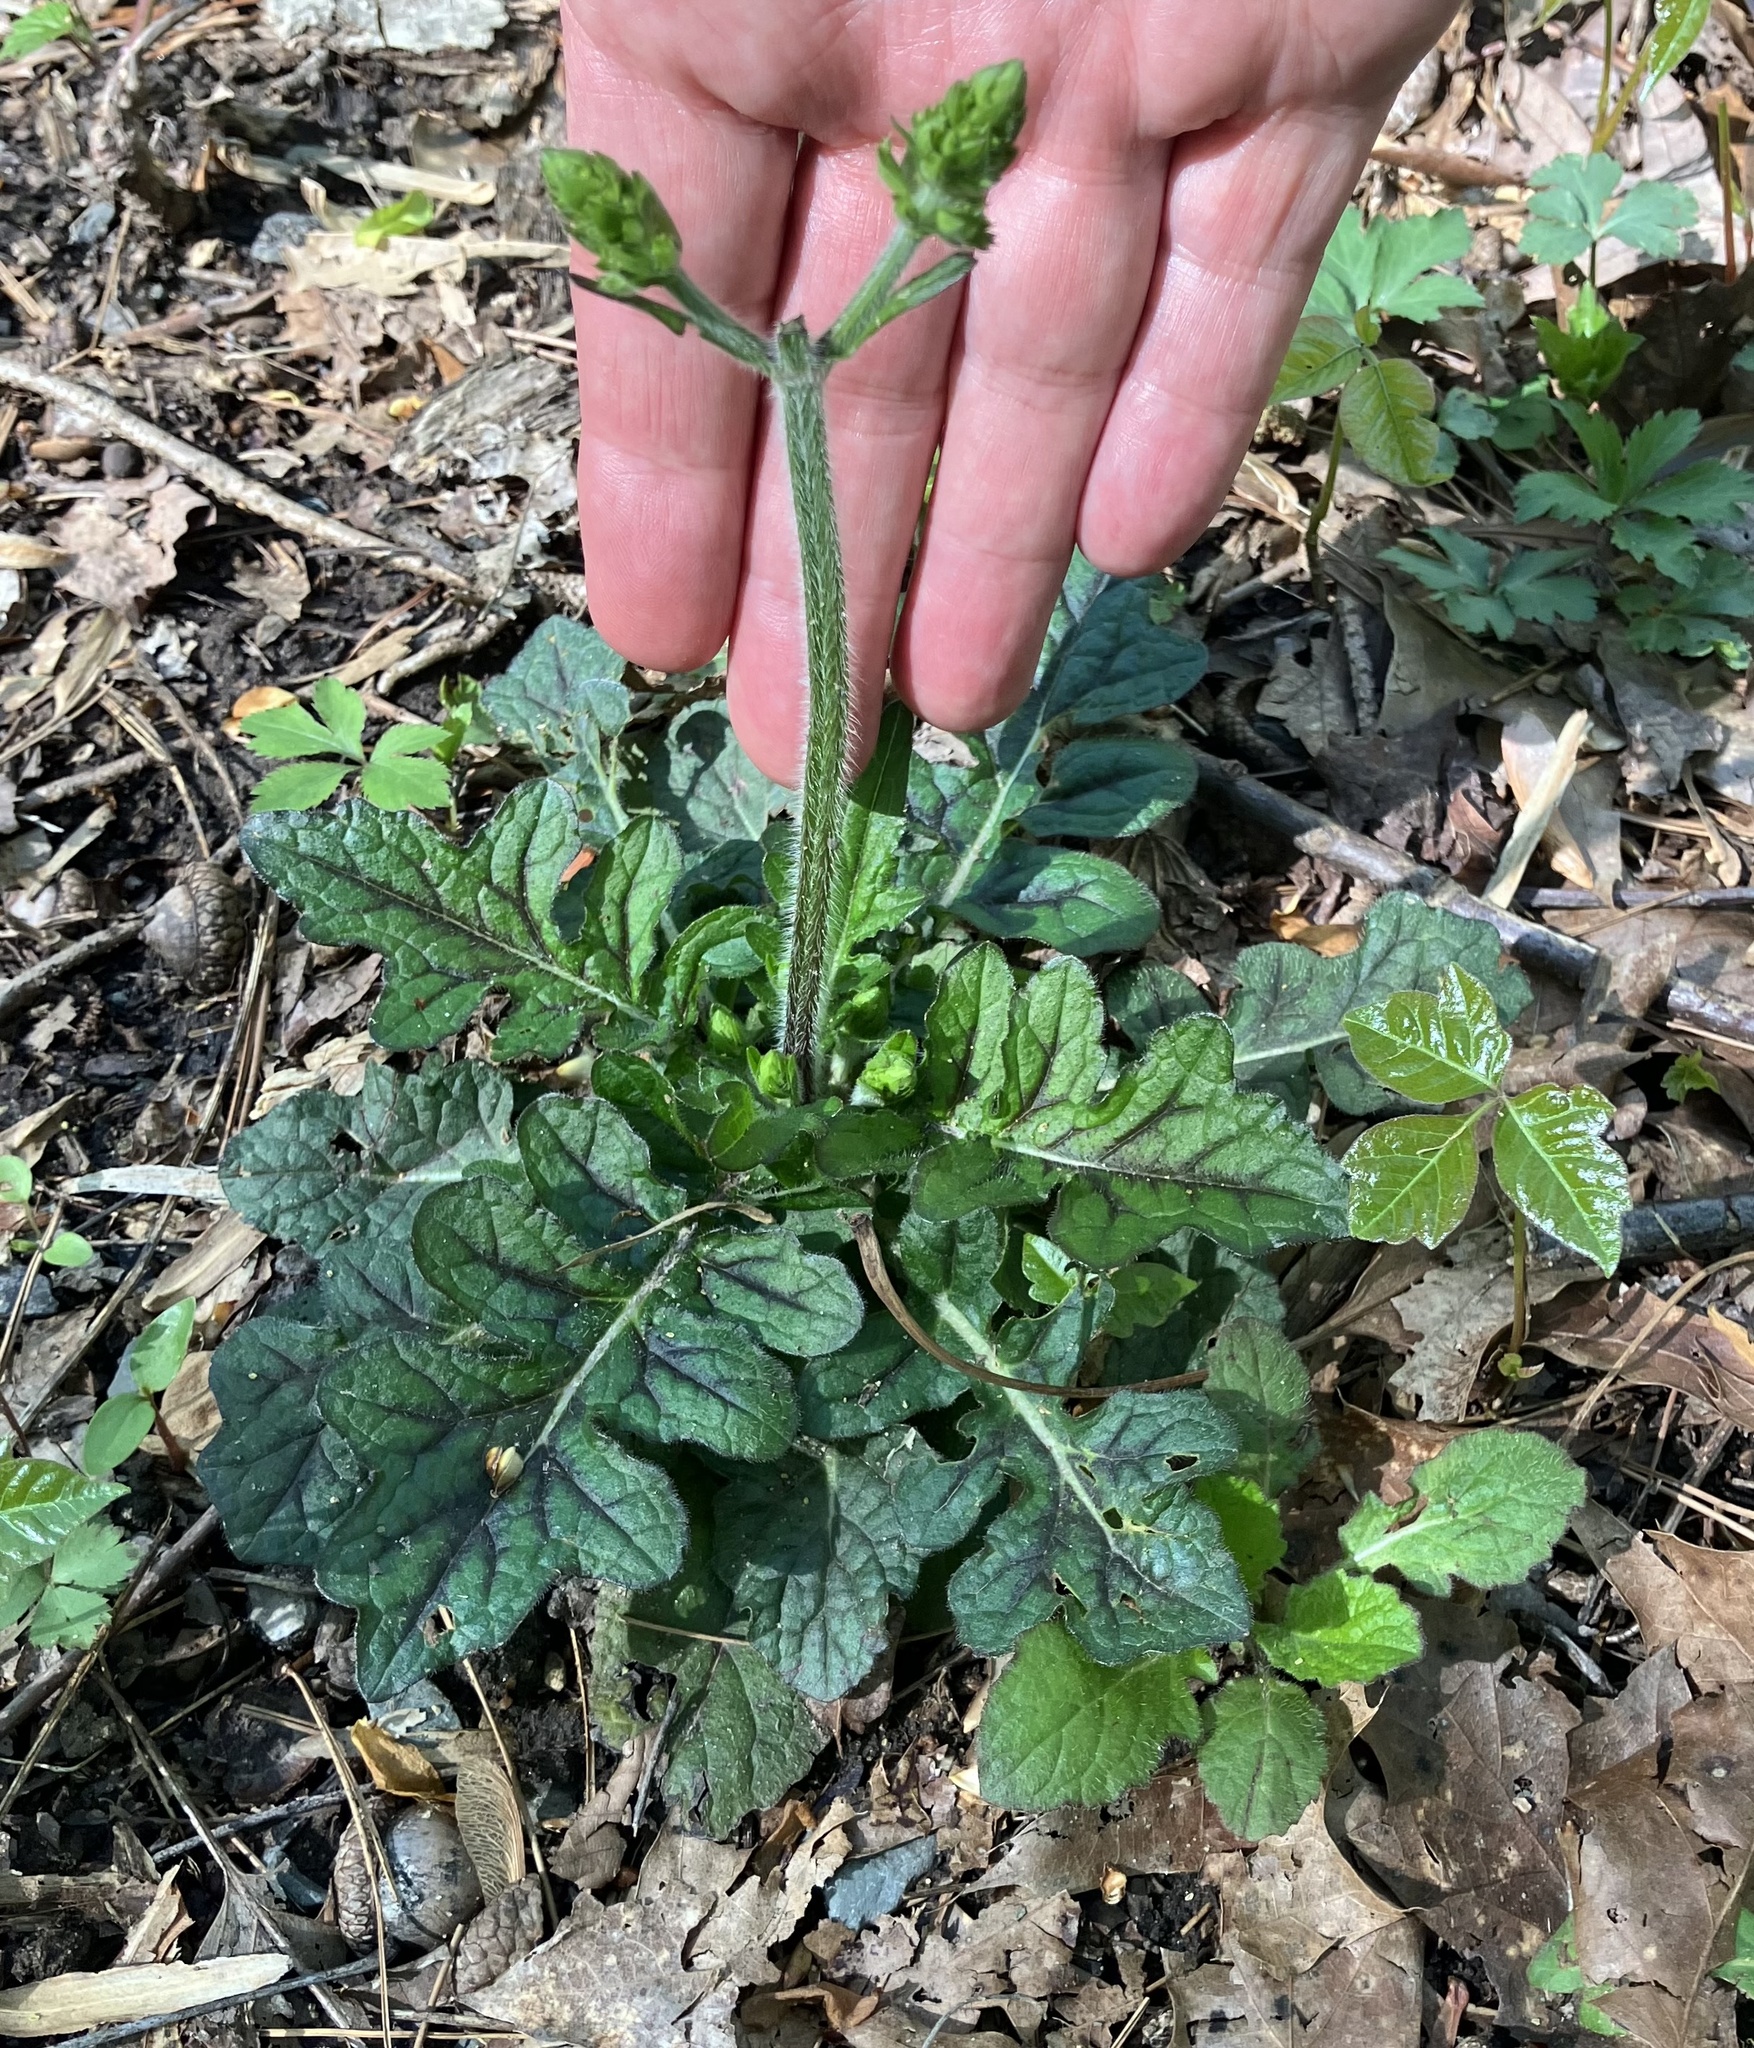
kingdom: Plantae
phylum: Tracheophyta
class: Magnoliopsida
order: Lamiales
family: Lamiaceae
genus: Salvia
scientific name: Salvia lyrata
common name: Cancerweed
